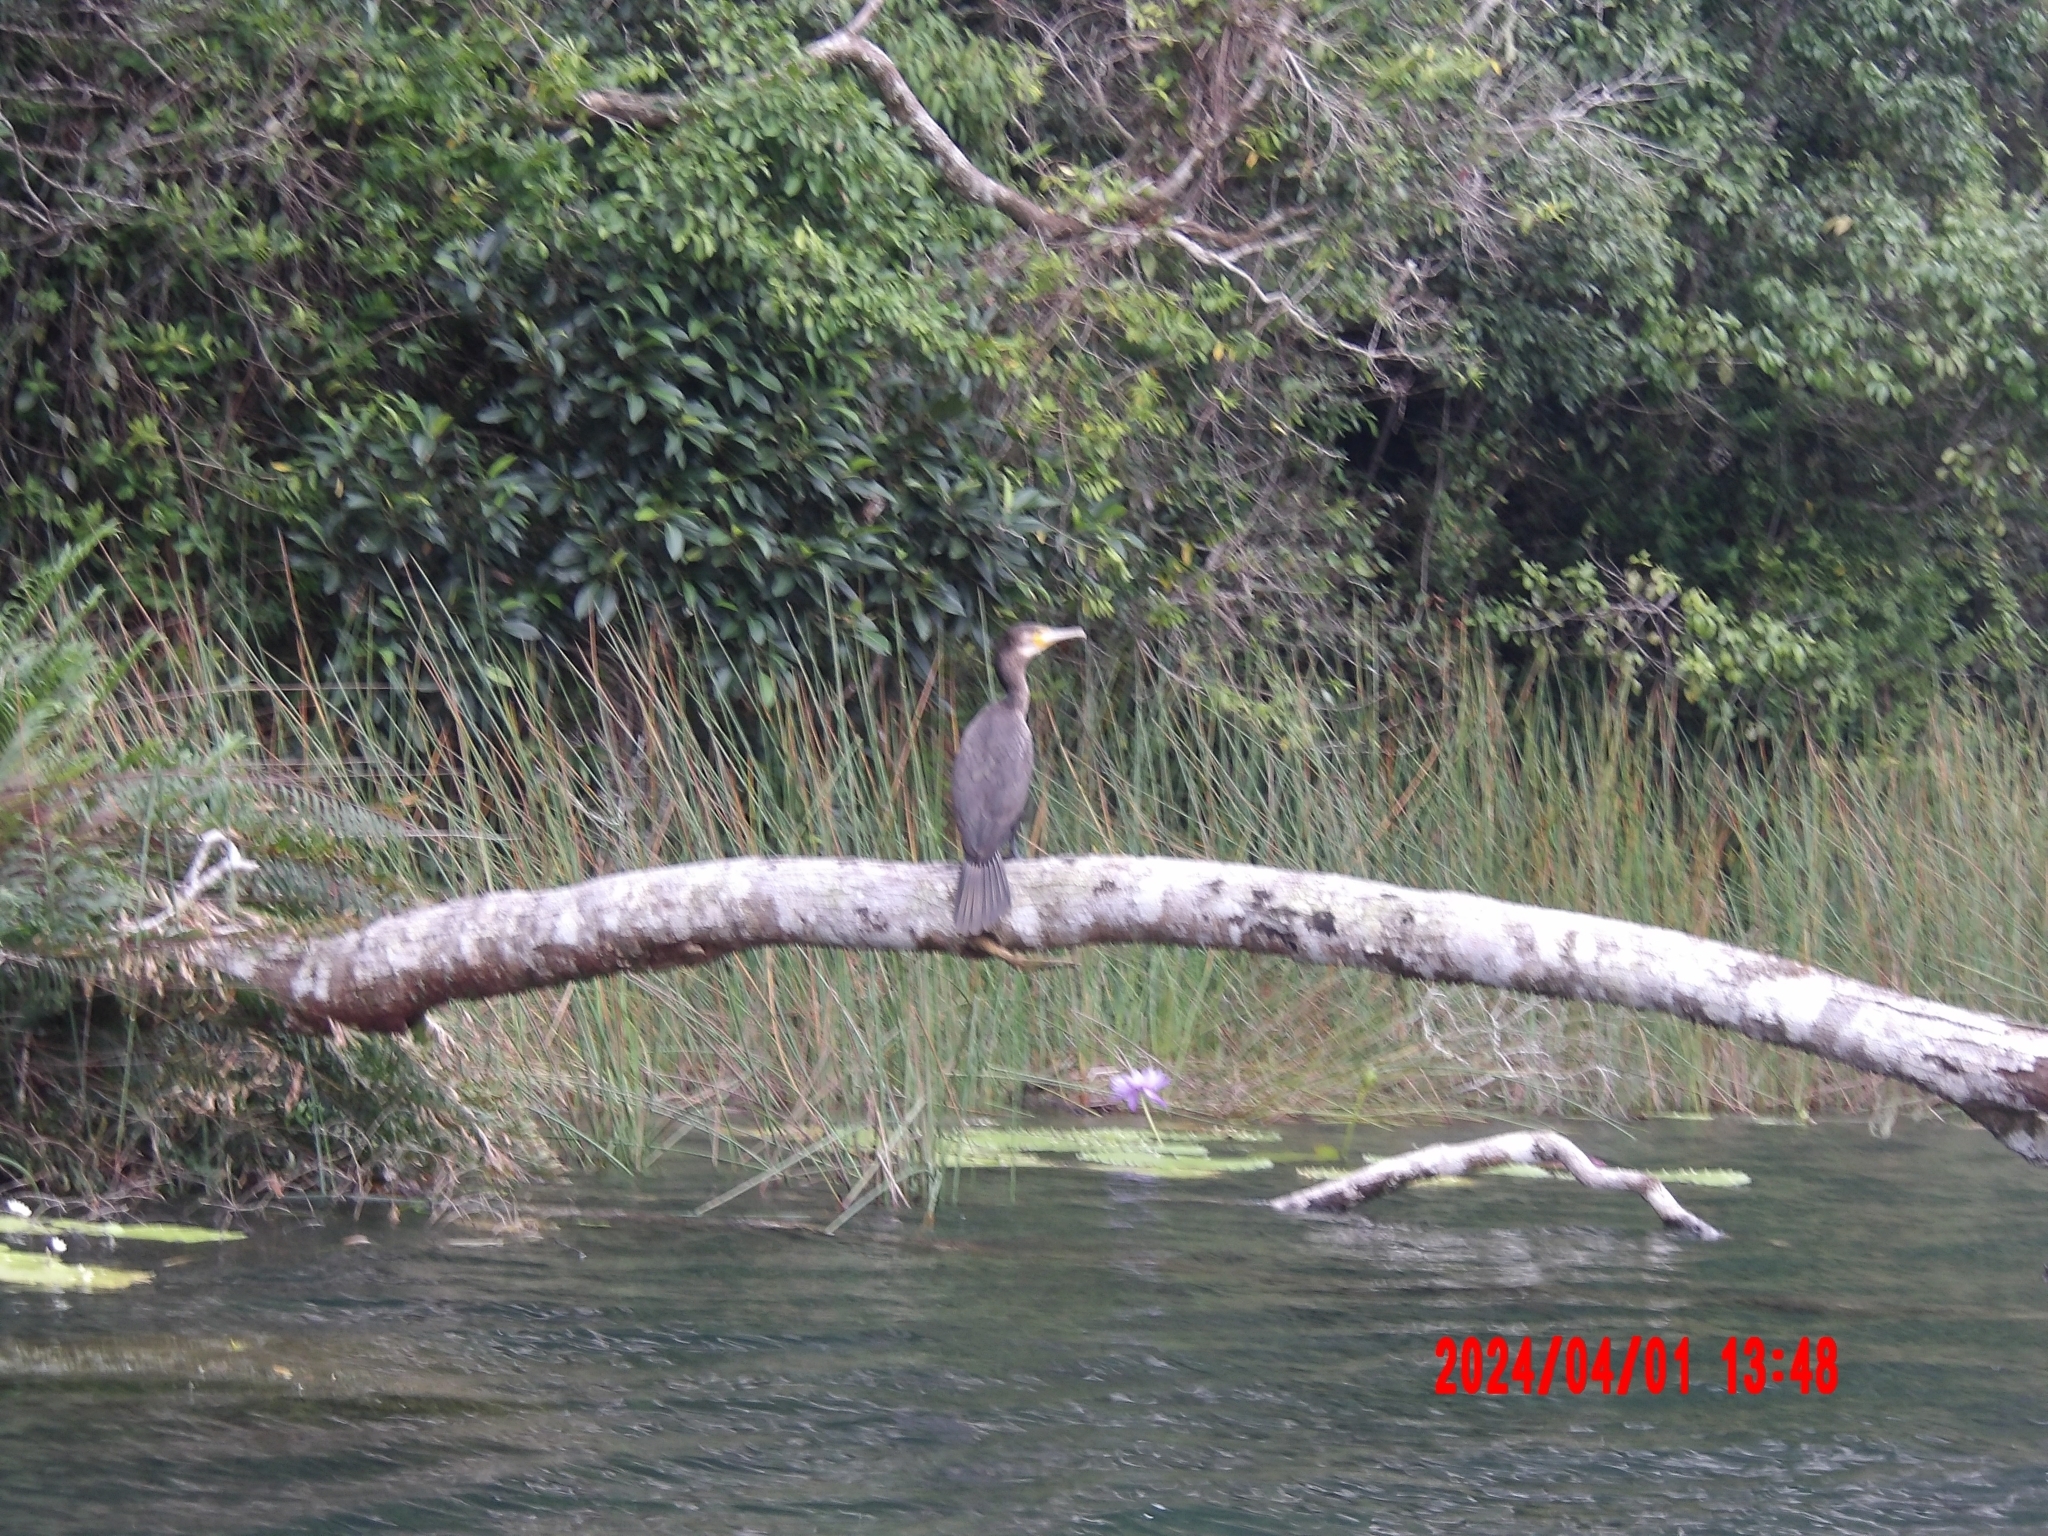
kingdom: Animalia
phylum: Chordata
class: Aves
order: Suliformes
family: Phalacrocoracidae
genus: Phalacrocorax
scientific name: Phalacrocorax carbo
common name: Great cormorant
